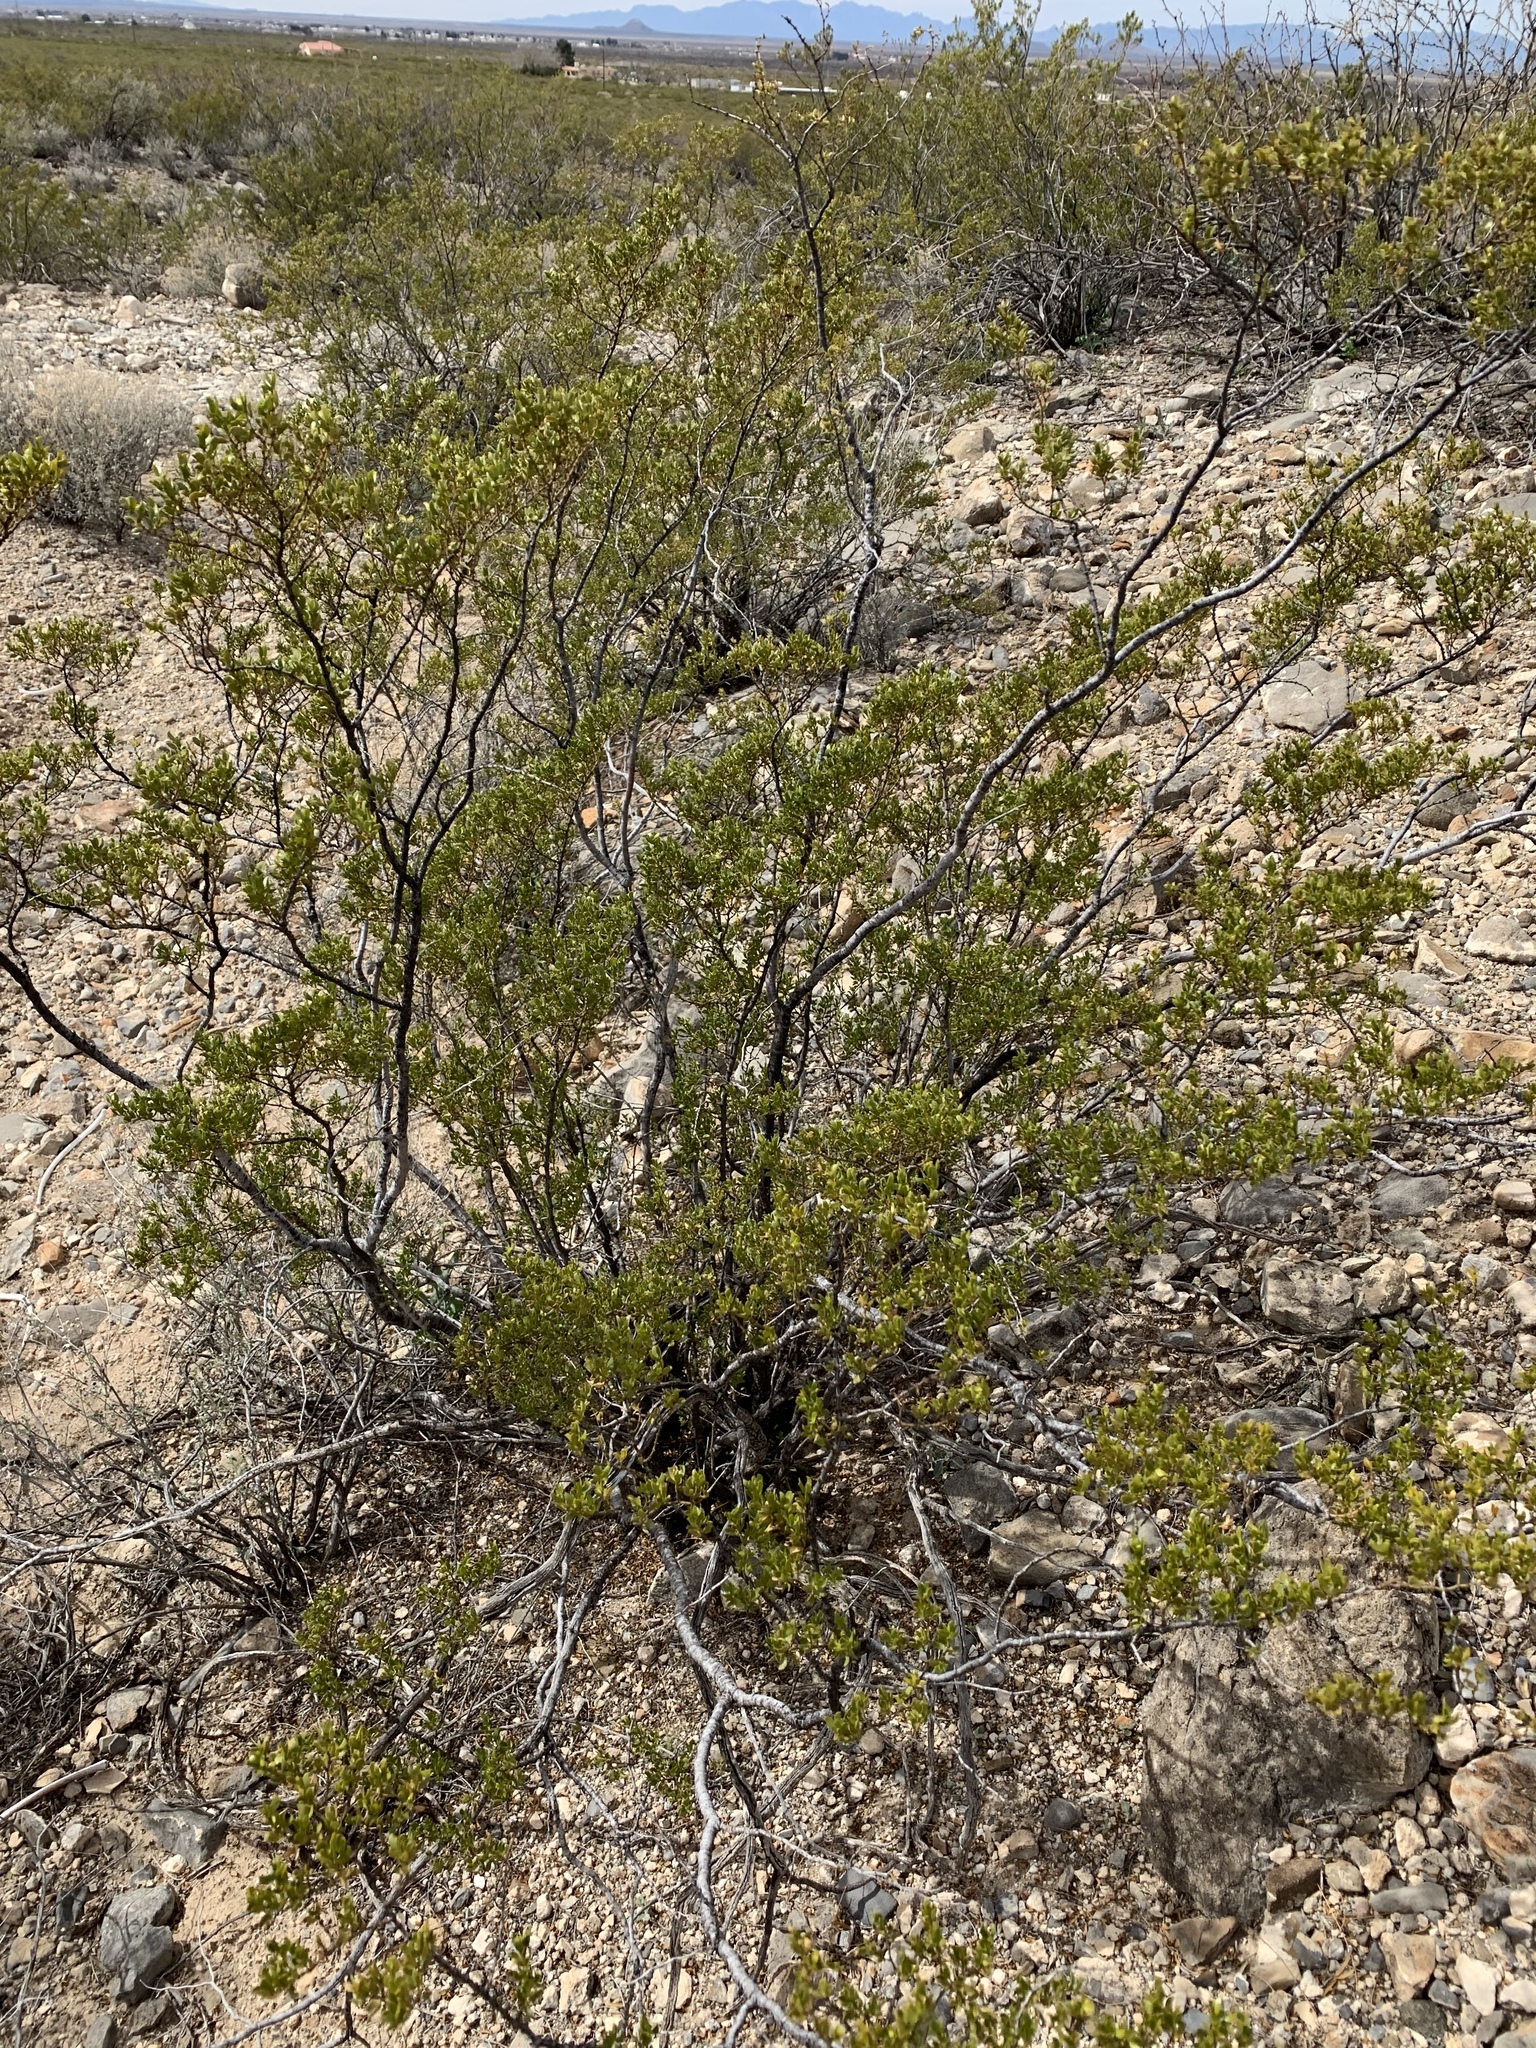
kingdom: Plantae
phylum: Tracheophyta
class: Magnoliopsida
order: Zygophyllales
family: Zygophyllaceae
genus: Larrea
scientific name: Larrea tridentata
